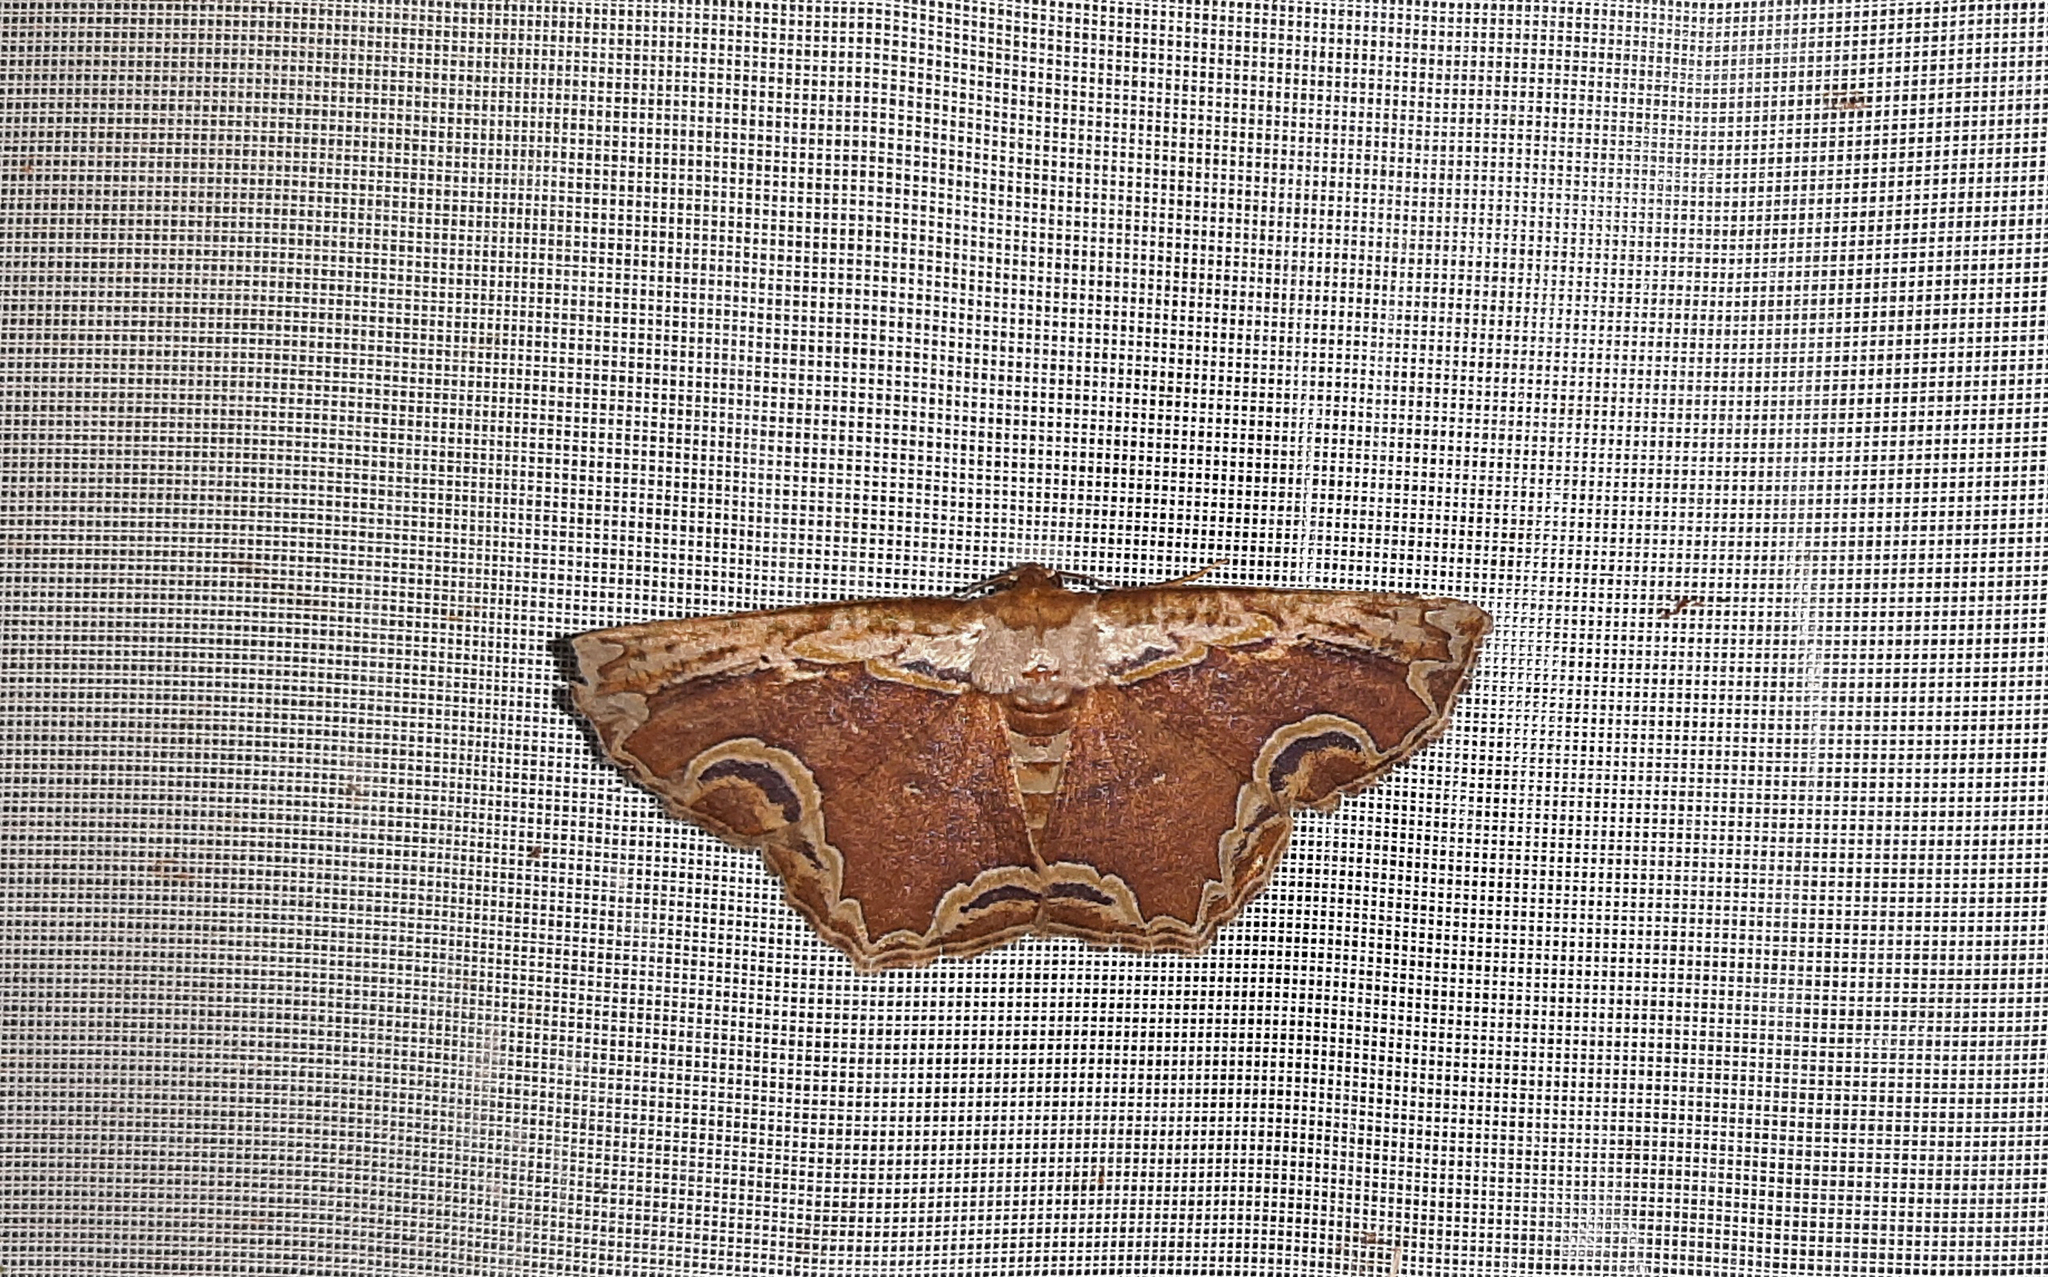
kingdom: Animalia
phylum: Arthropoda
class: Insecta
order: Lepidoptera
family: Geometridae
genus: Sabulodes
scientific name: Sabulodes ornatissima
